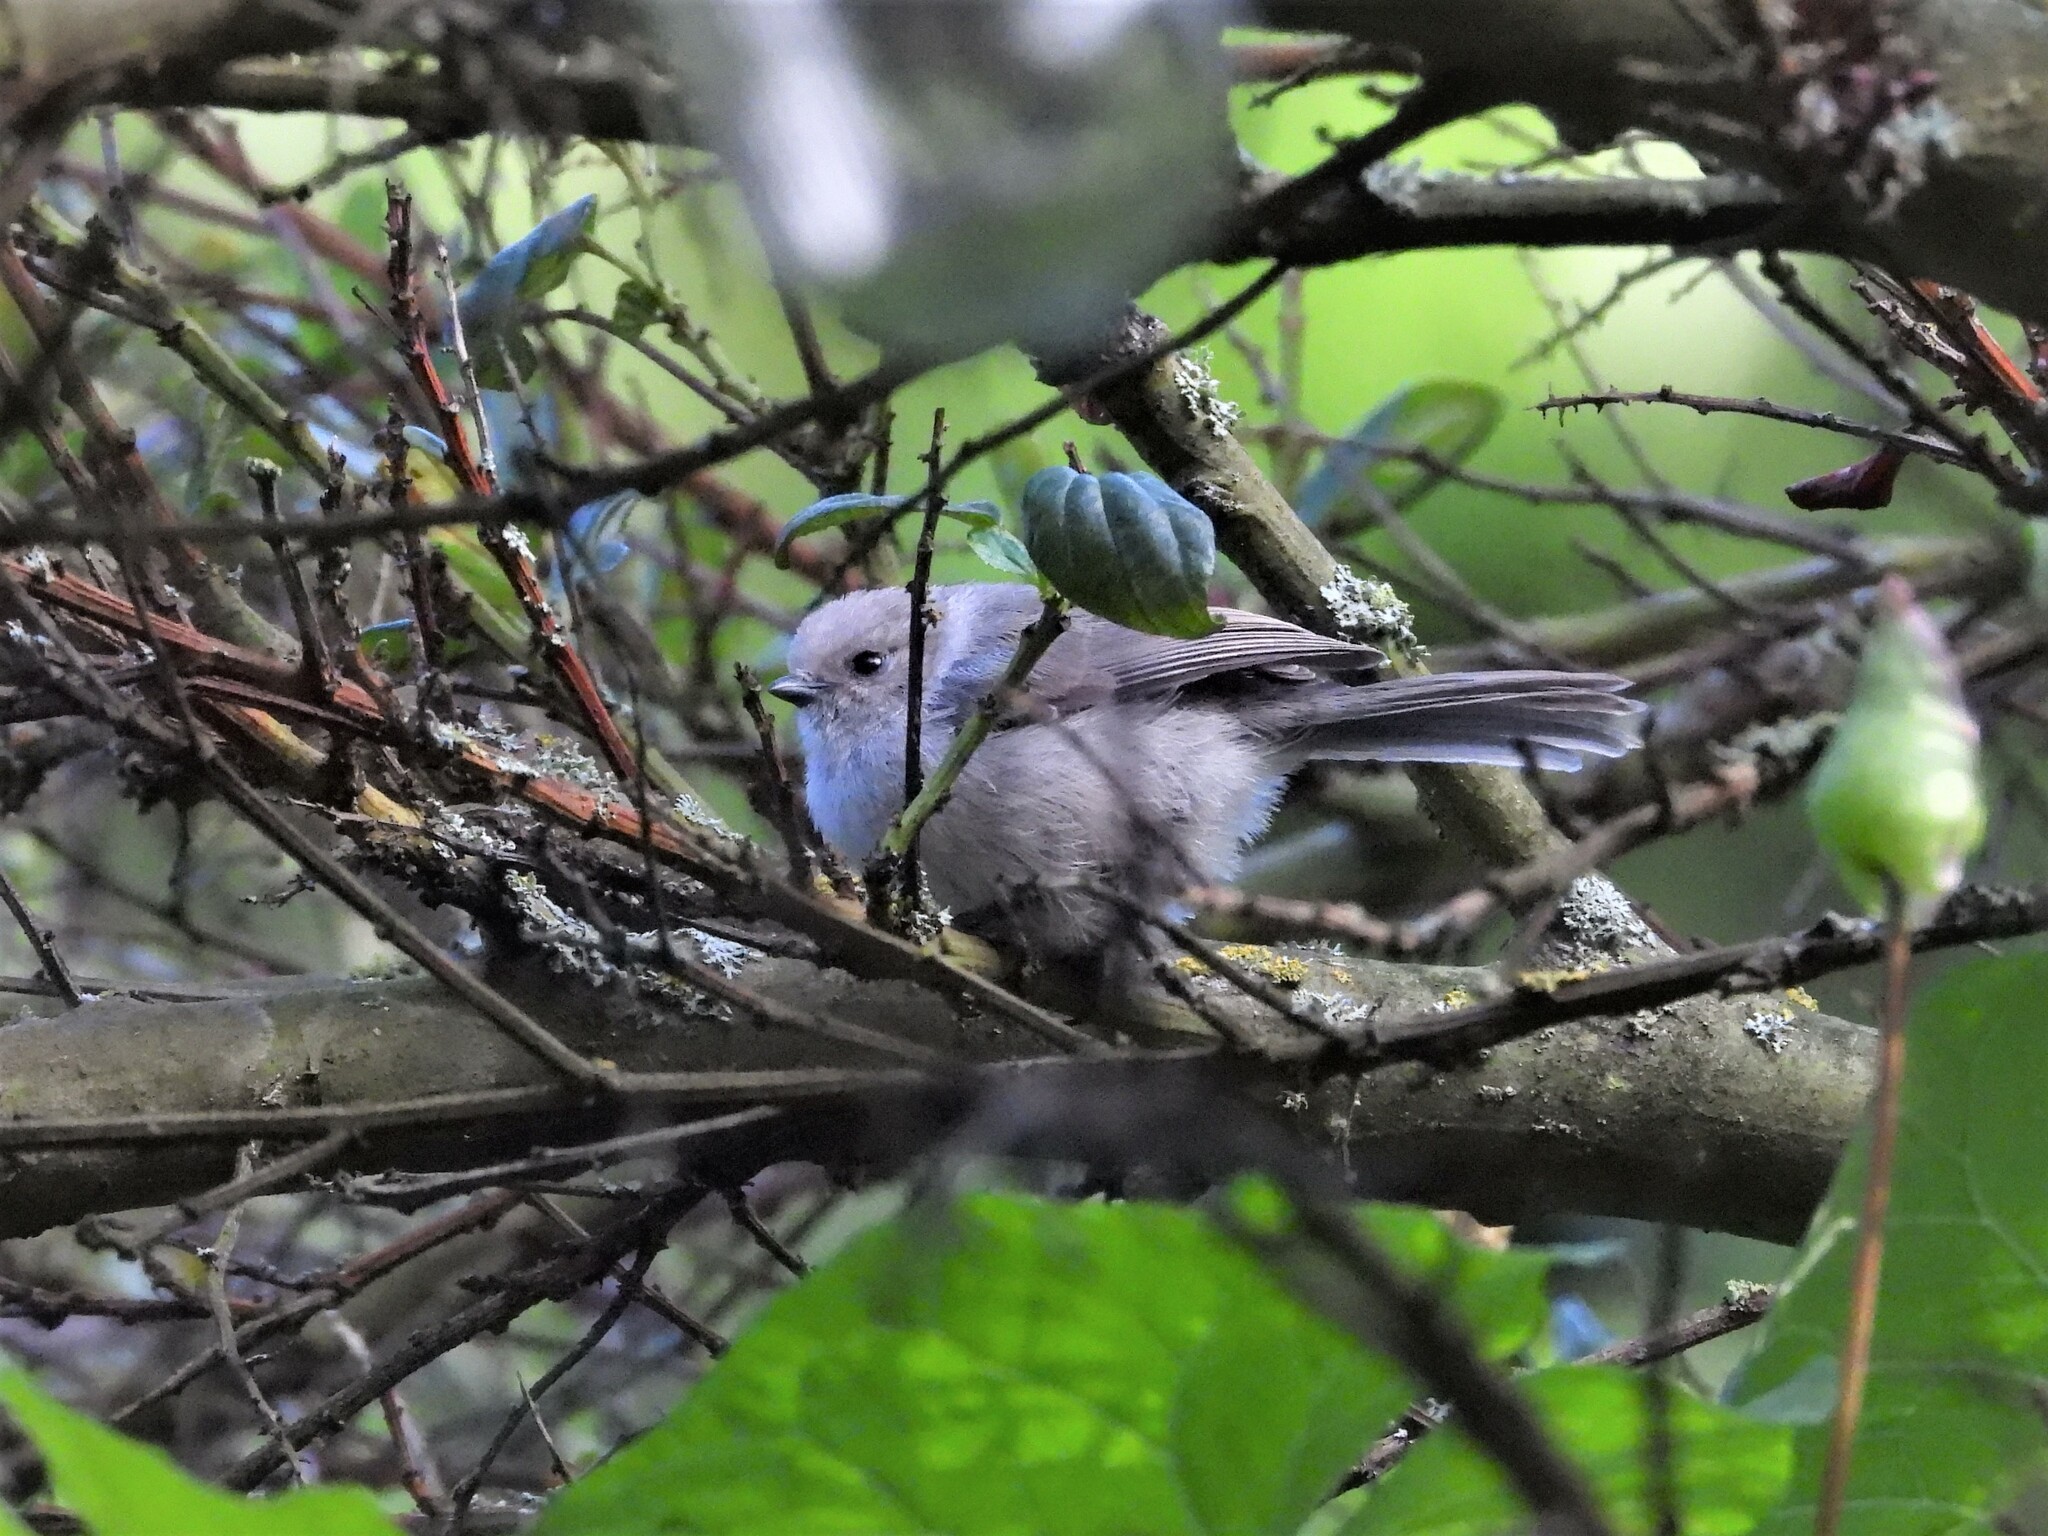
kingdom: Animalia
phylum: Chordata
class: Aves
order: Passeriformes
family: Aegithalidae
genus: Psaltriparus
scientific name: Psaltriparus minimus
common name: American bushtit
